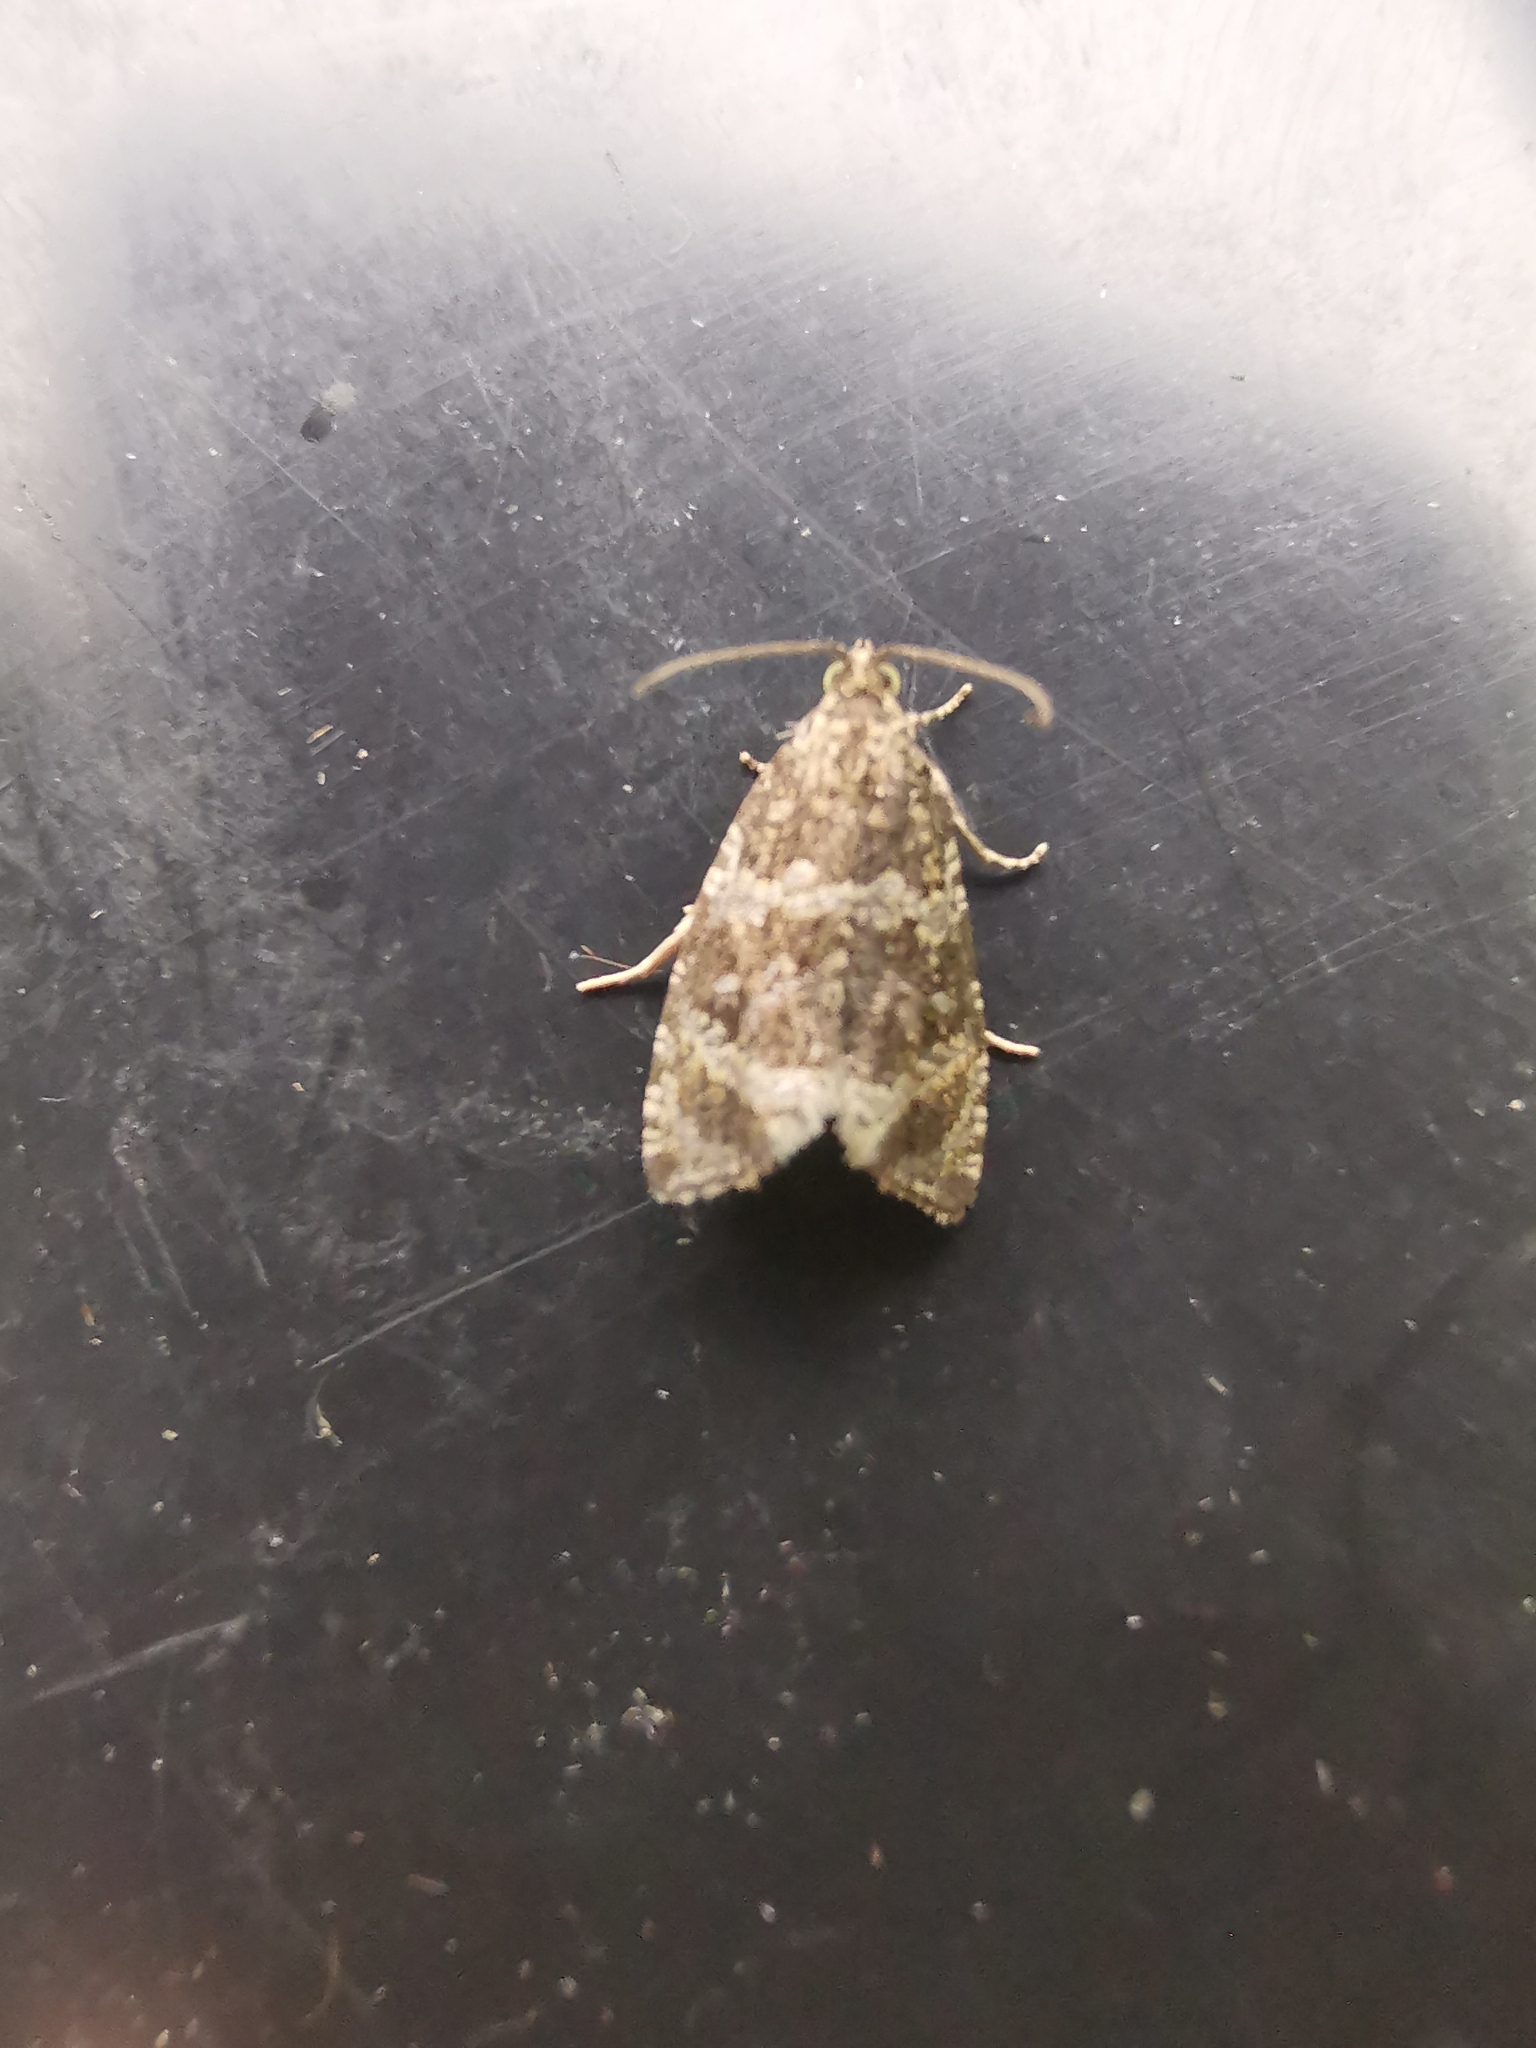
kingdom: Animalia
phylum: Arthropoda
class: Insecta
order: Lepidoptera
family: Tortricidae
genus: Syricoris
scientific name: Syricoris lacunana
